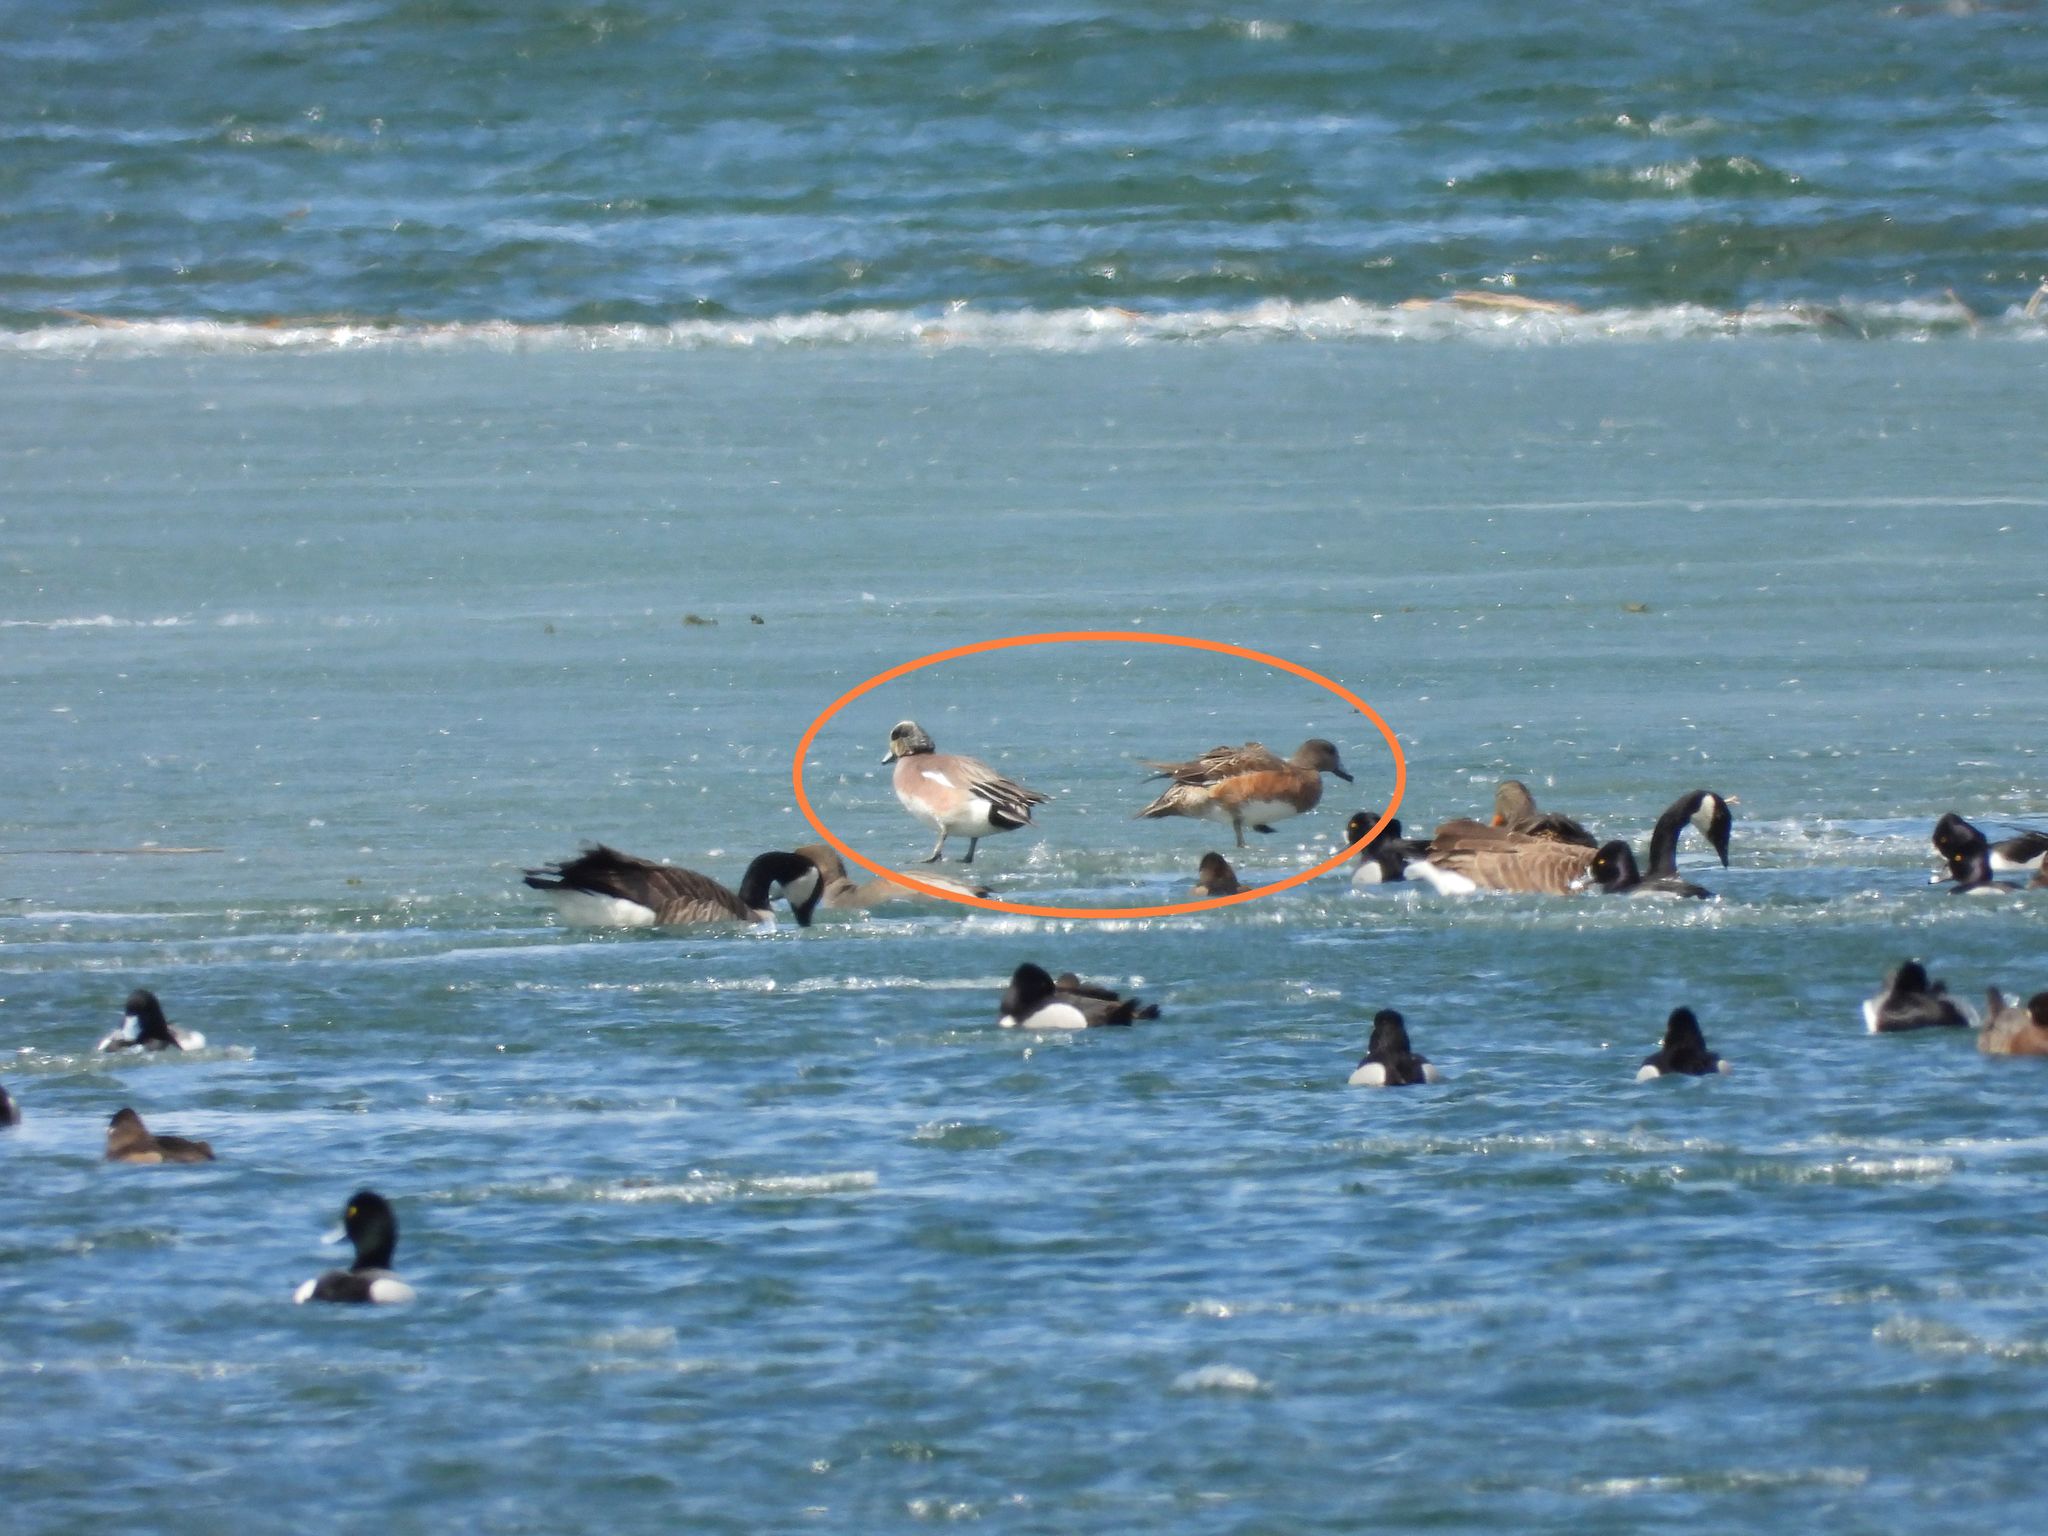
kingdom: Animalia
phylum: Chordata
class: Aves
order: Anseriformes
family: Anatidae
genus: Mareca
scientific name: Mareca americana
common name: American wigeon
